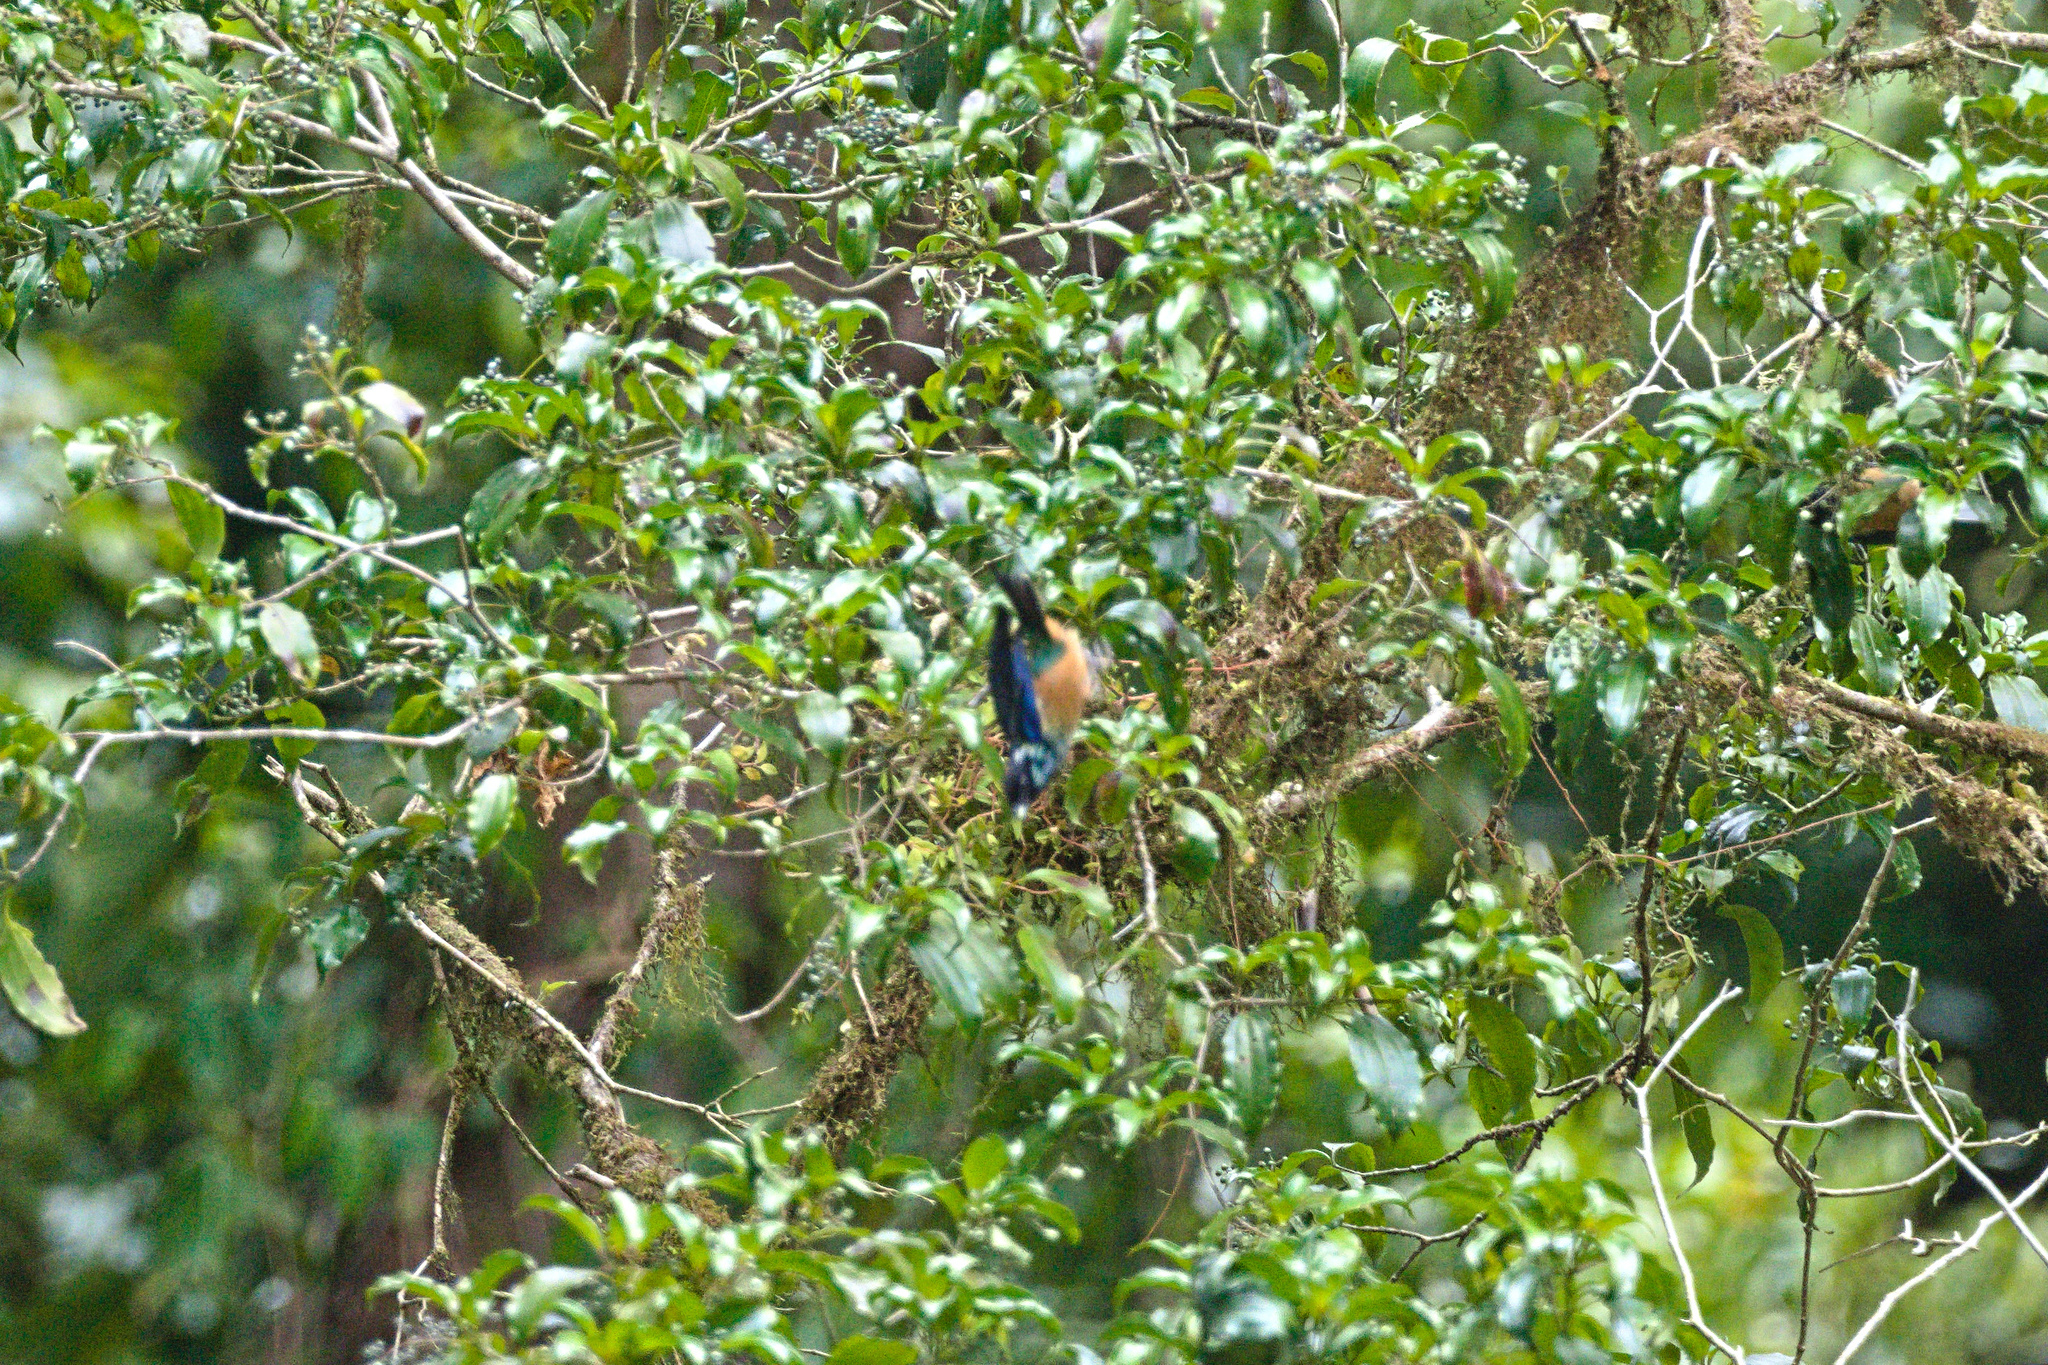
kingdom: Animalia
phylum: Chordata
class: Aves
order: Passeriformes
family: Thraupidae
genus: Tangara
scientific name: Tangara dowii
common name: Spangle-cheeked tanager
